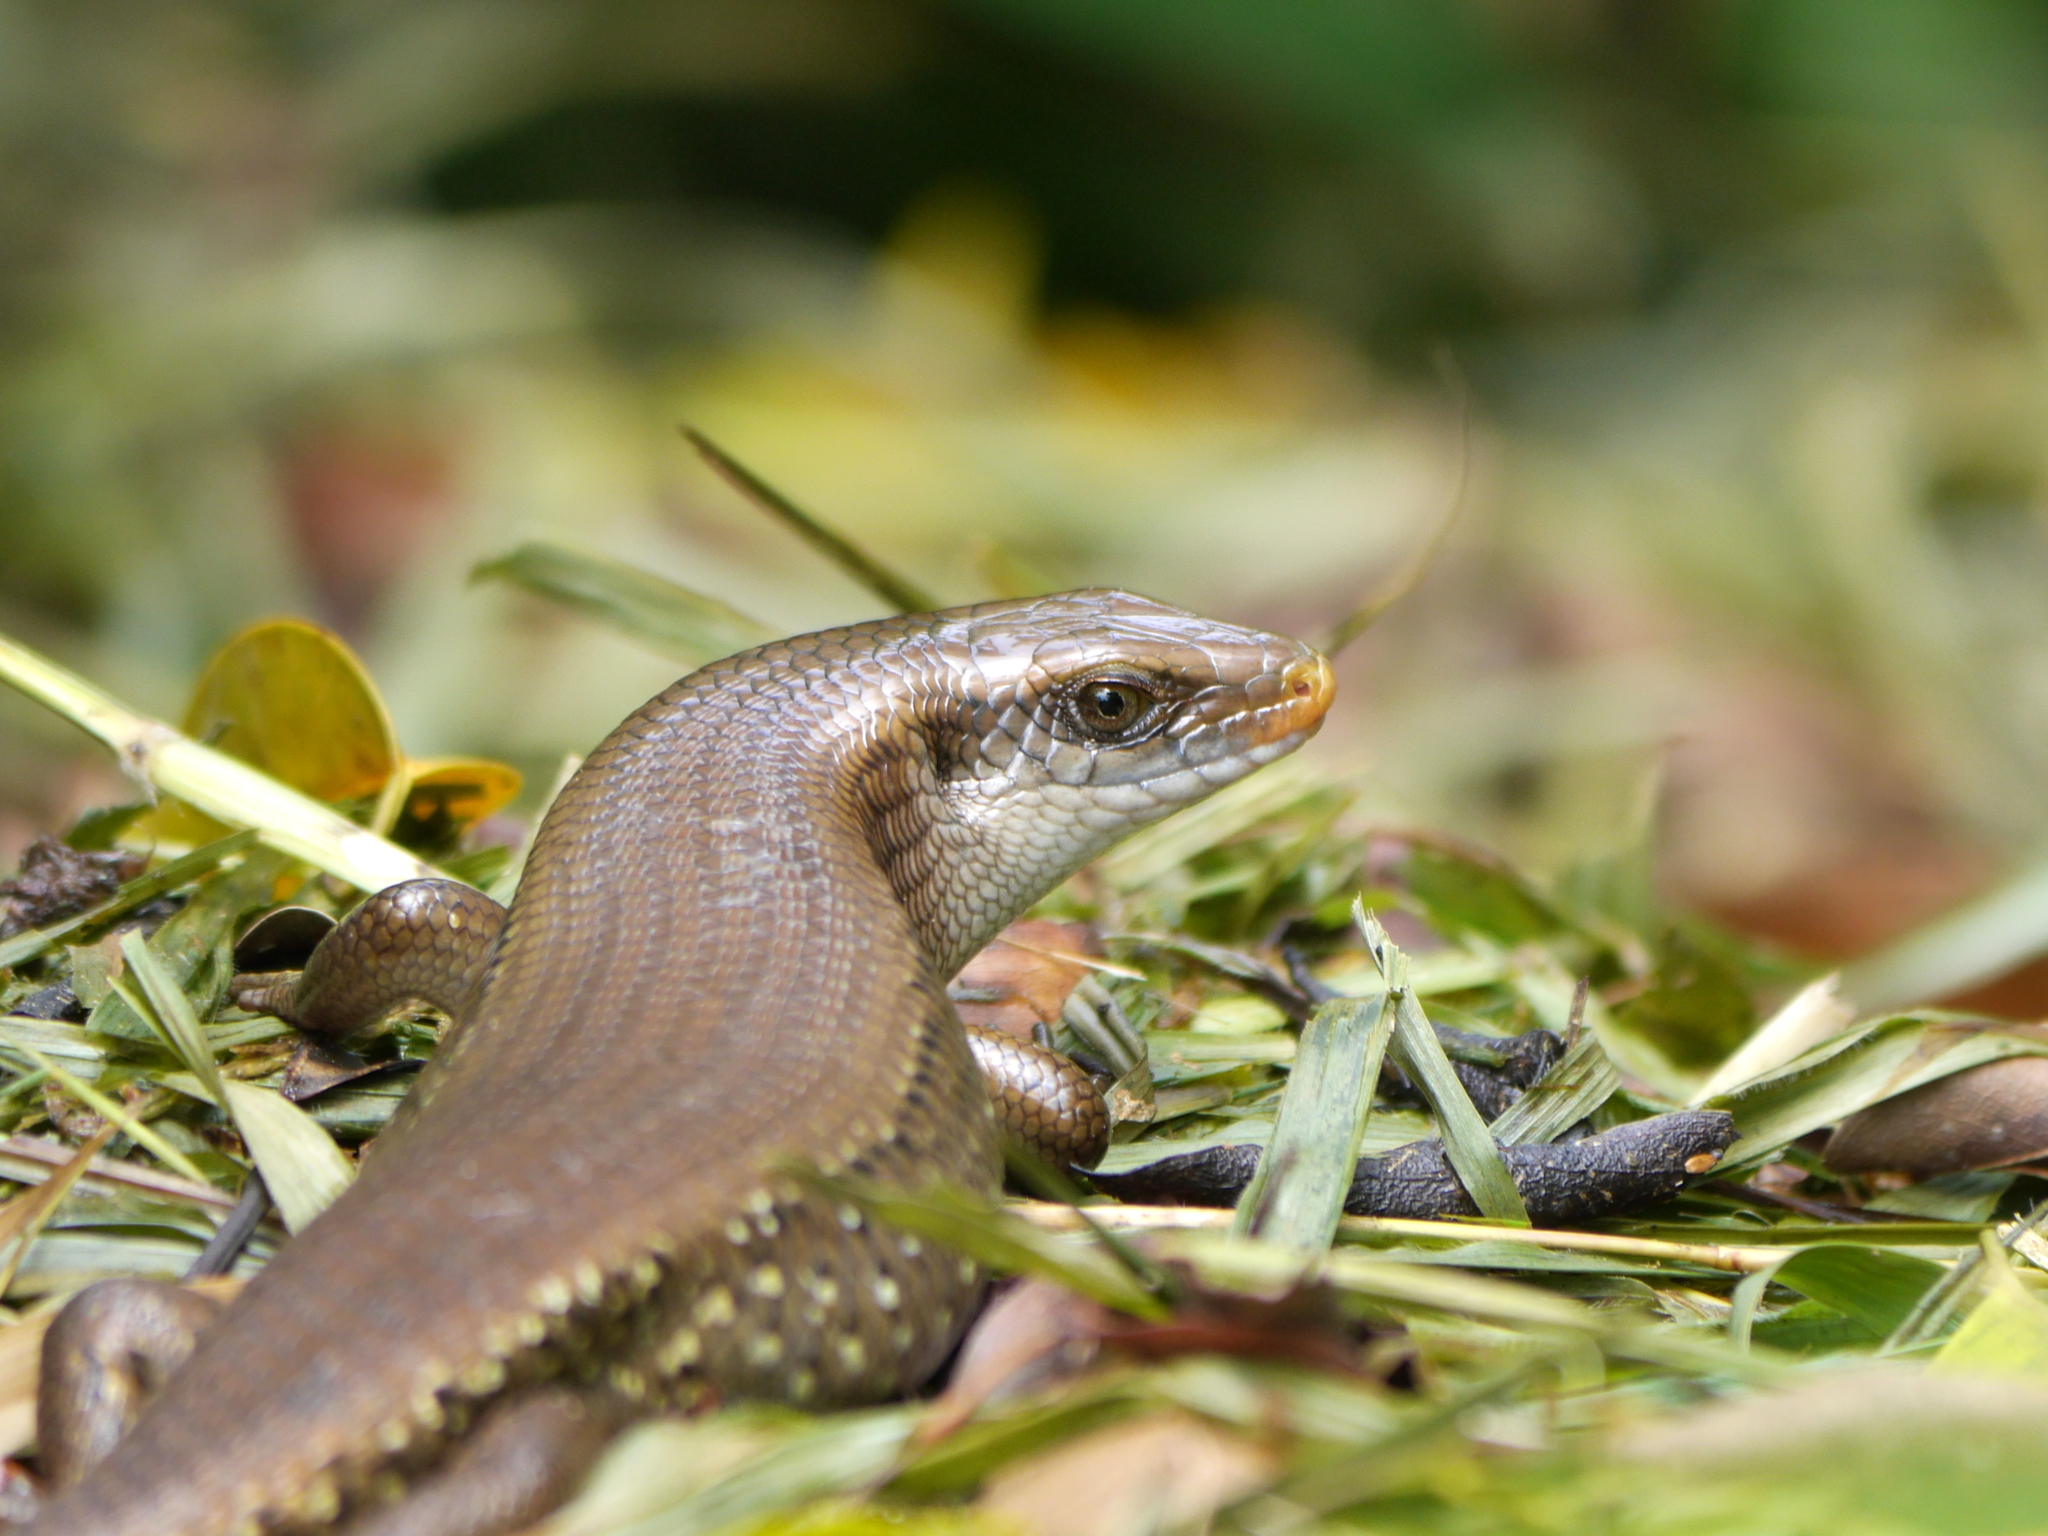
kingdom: Animalia
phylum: Chordata
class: Squamata
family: Scincidae
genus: Eutropis
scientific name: Eutropis multifasciata
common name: Common mabuya
